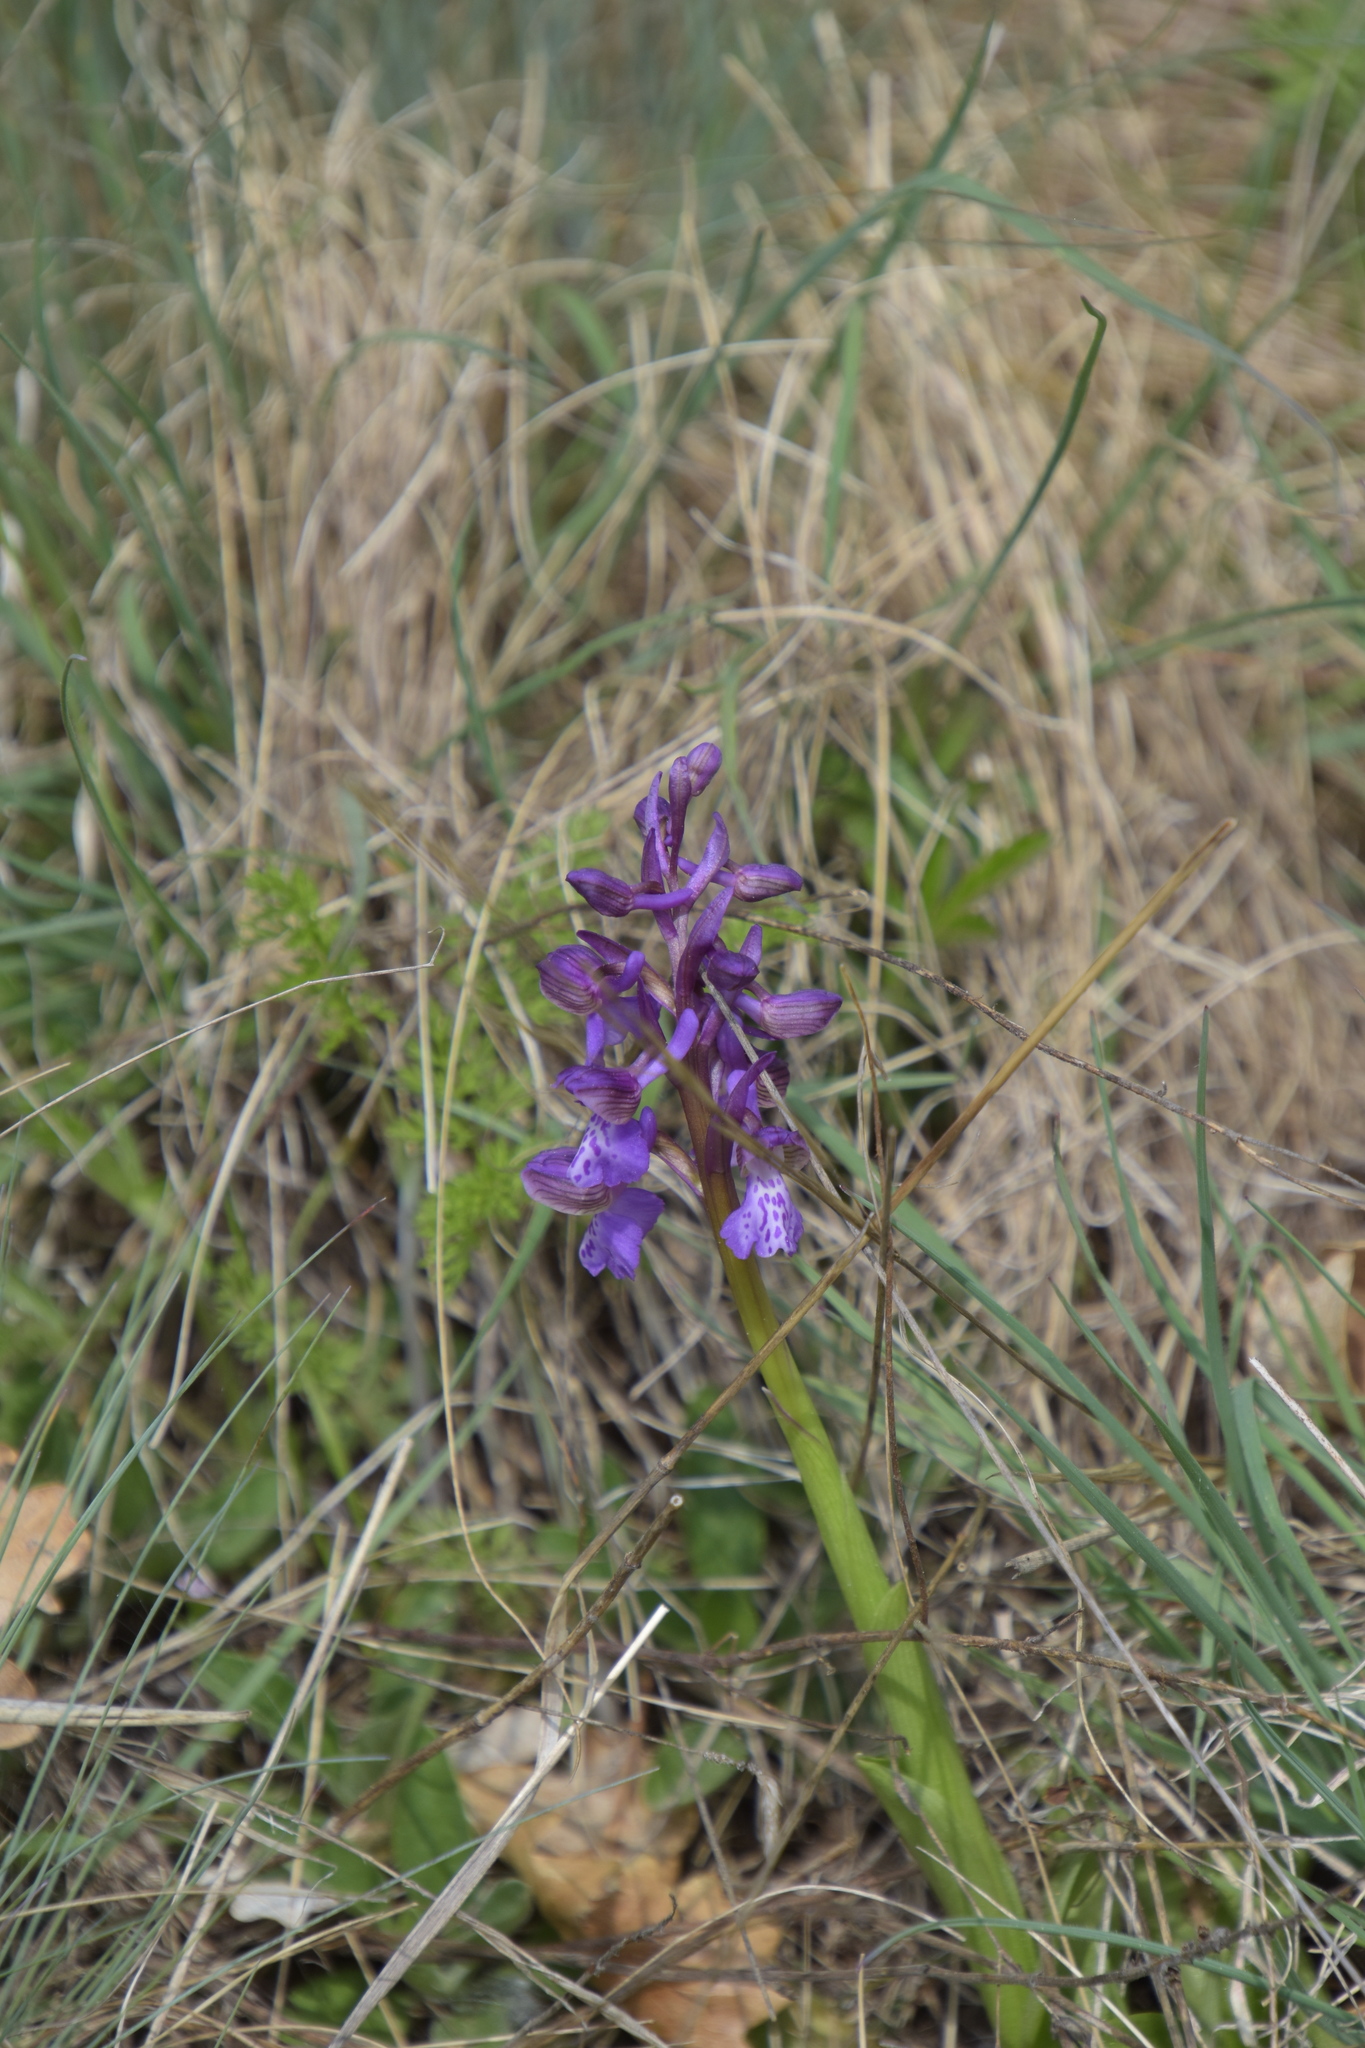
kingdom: Plantae
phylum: Tracheophyta
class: Liliopsida
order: Asparagales
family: Orchidaceae
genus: Anacamptis
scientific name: Anacamptis morio
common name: Green-winged orchid
